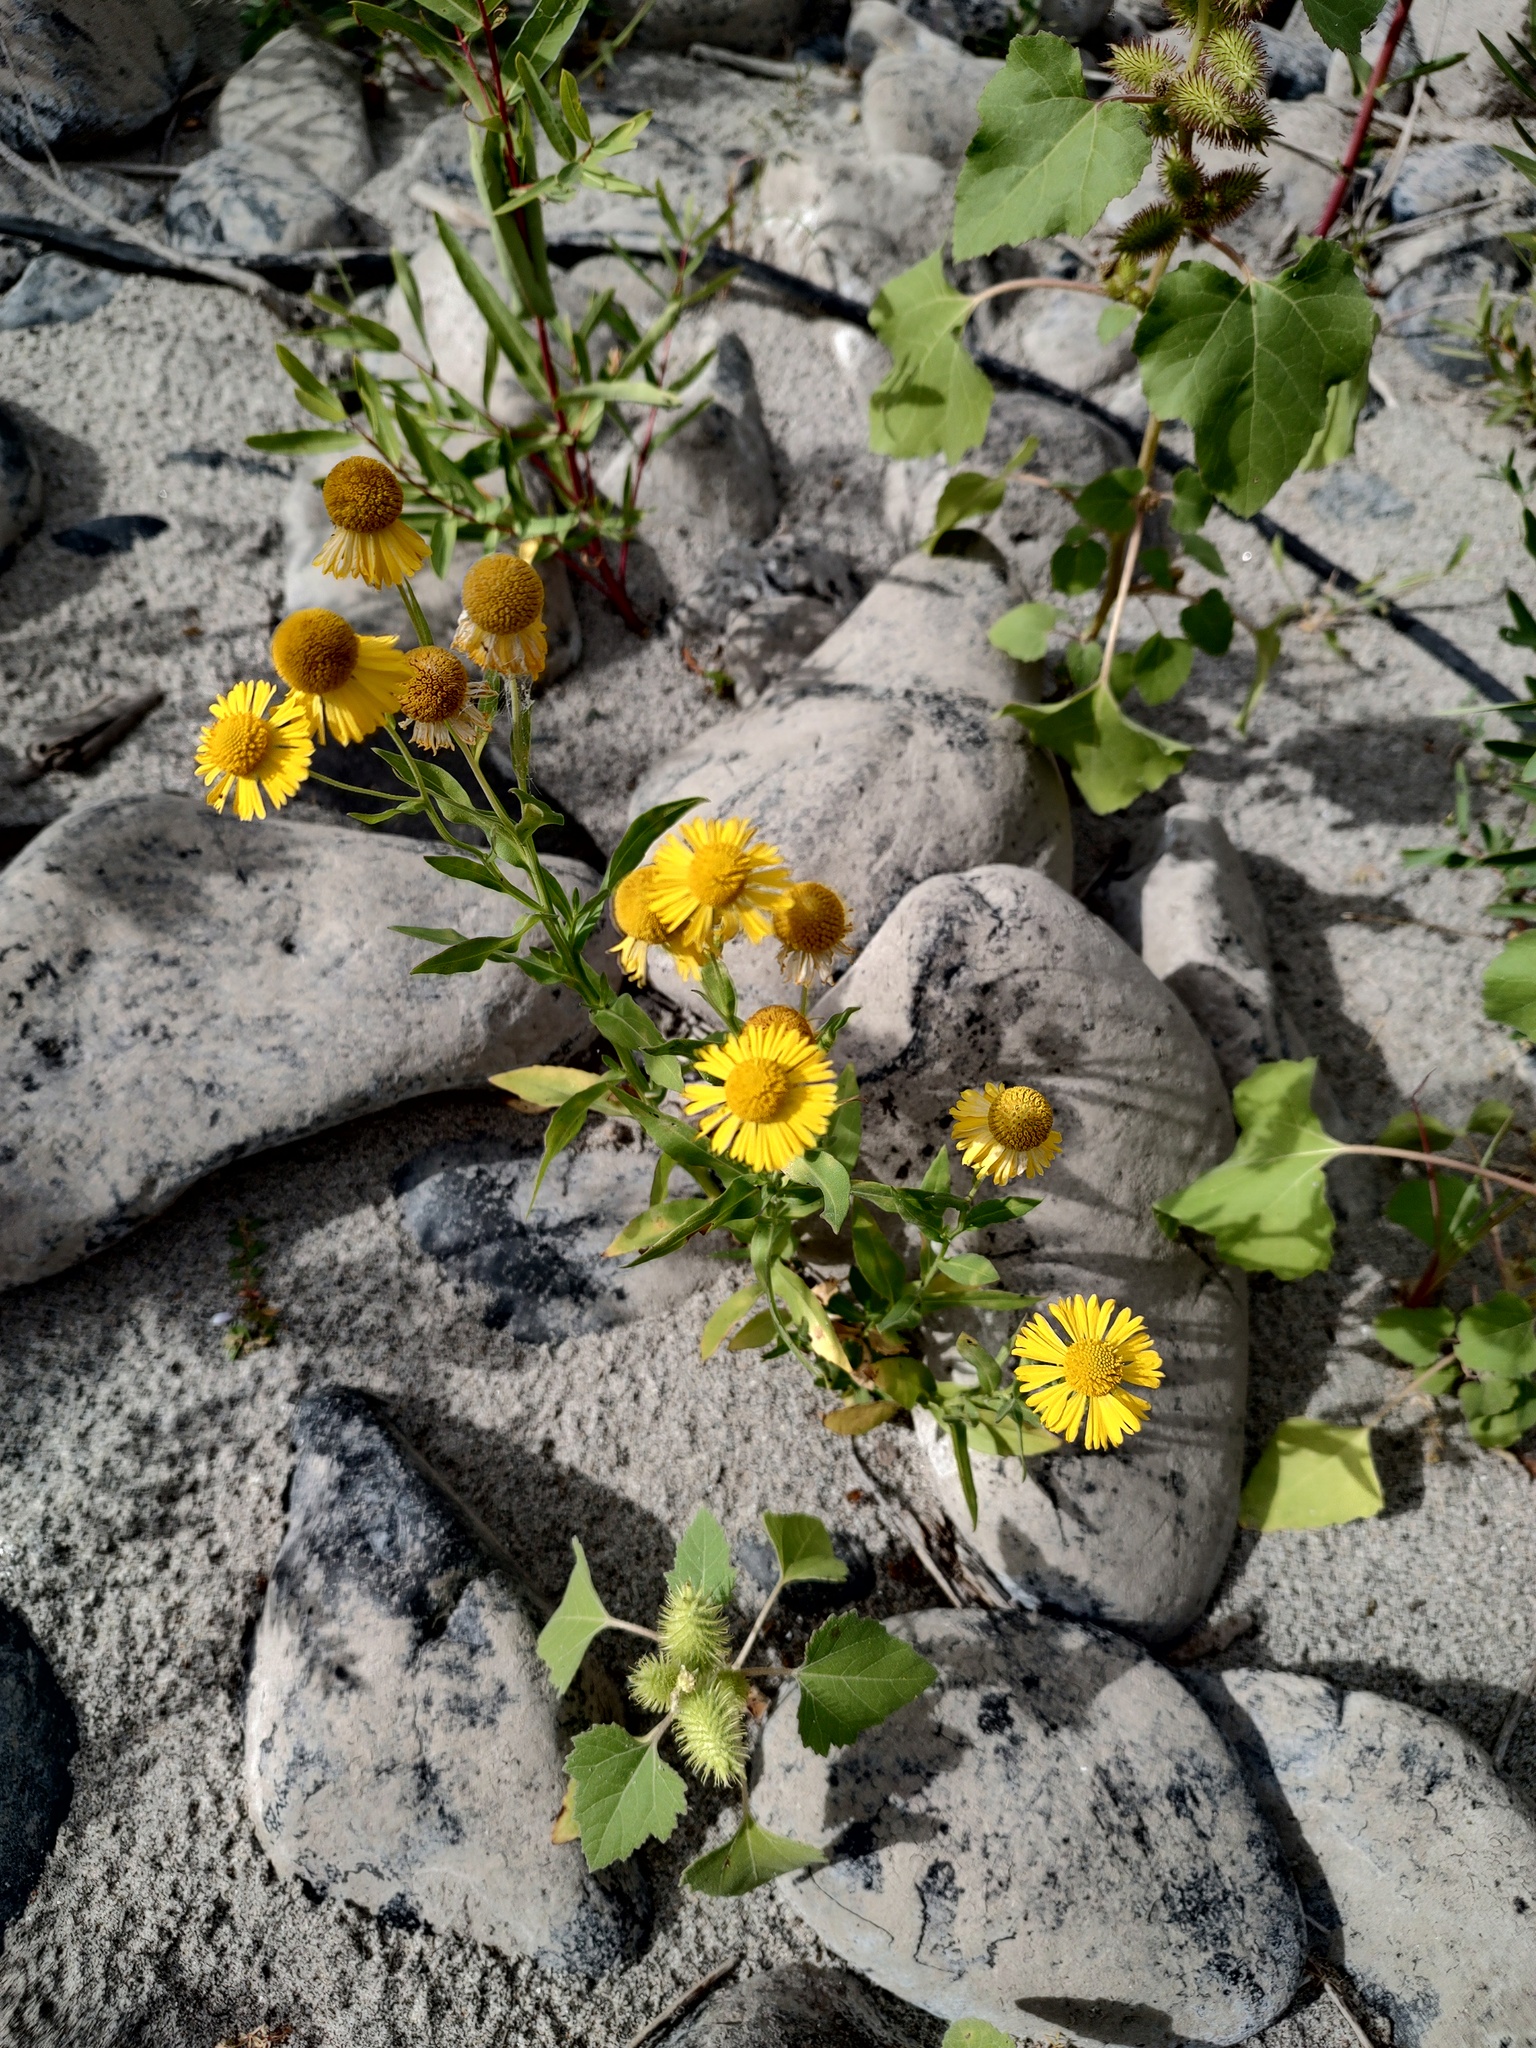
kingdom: Plantae
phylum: Tracheophyta
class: Magnoliopsida
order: Asterales
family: Asteraceae
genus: Helenium
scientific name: Helenium autumnale
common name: Sneezeweed
